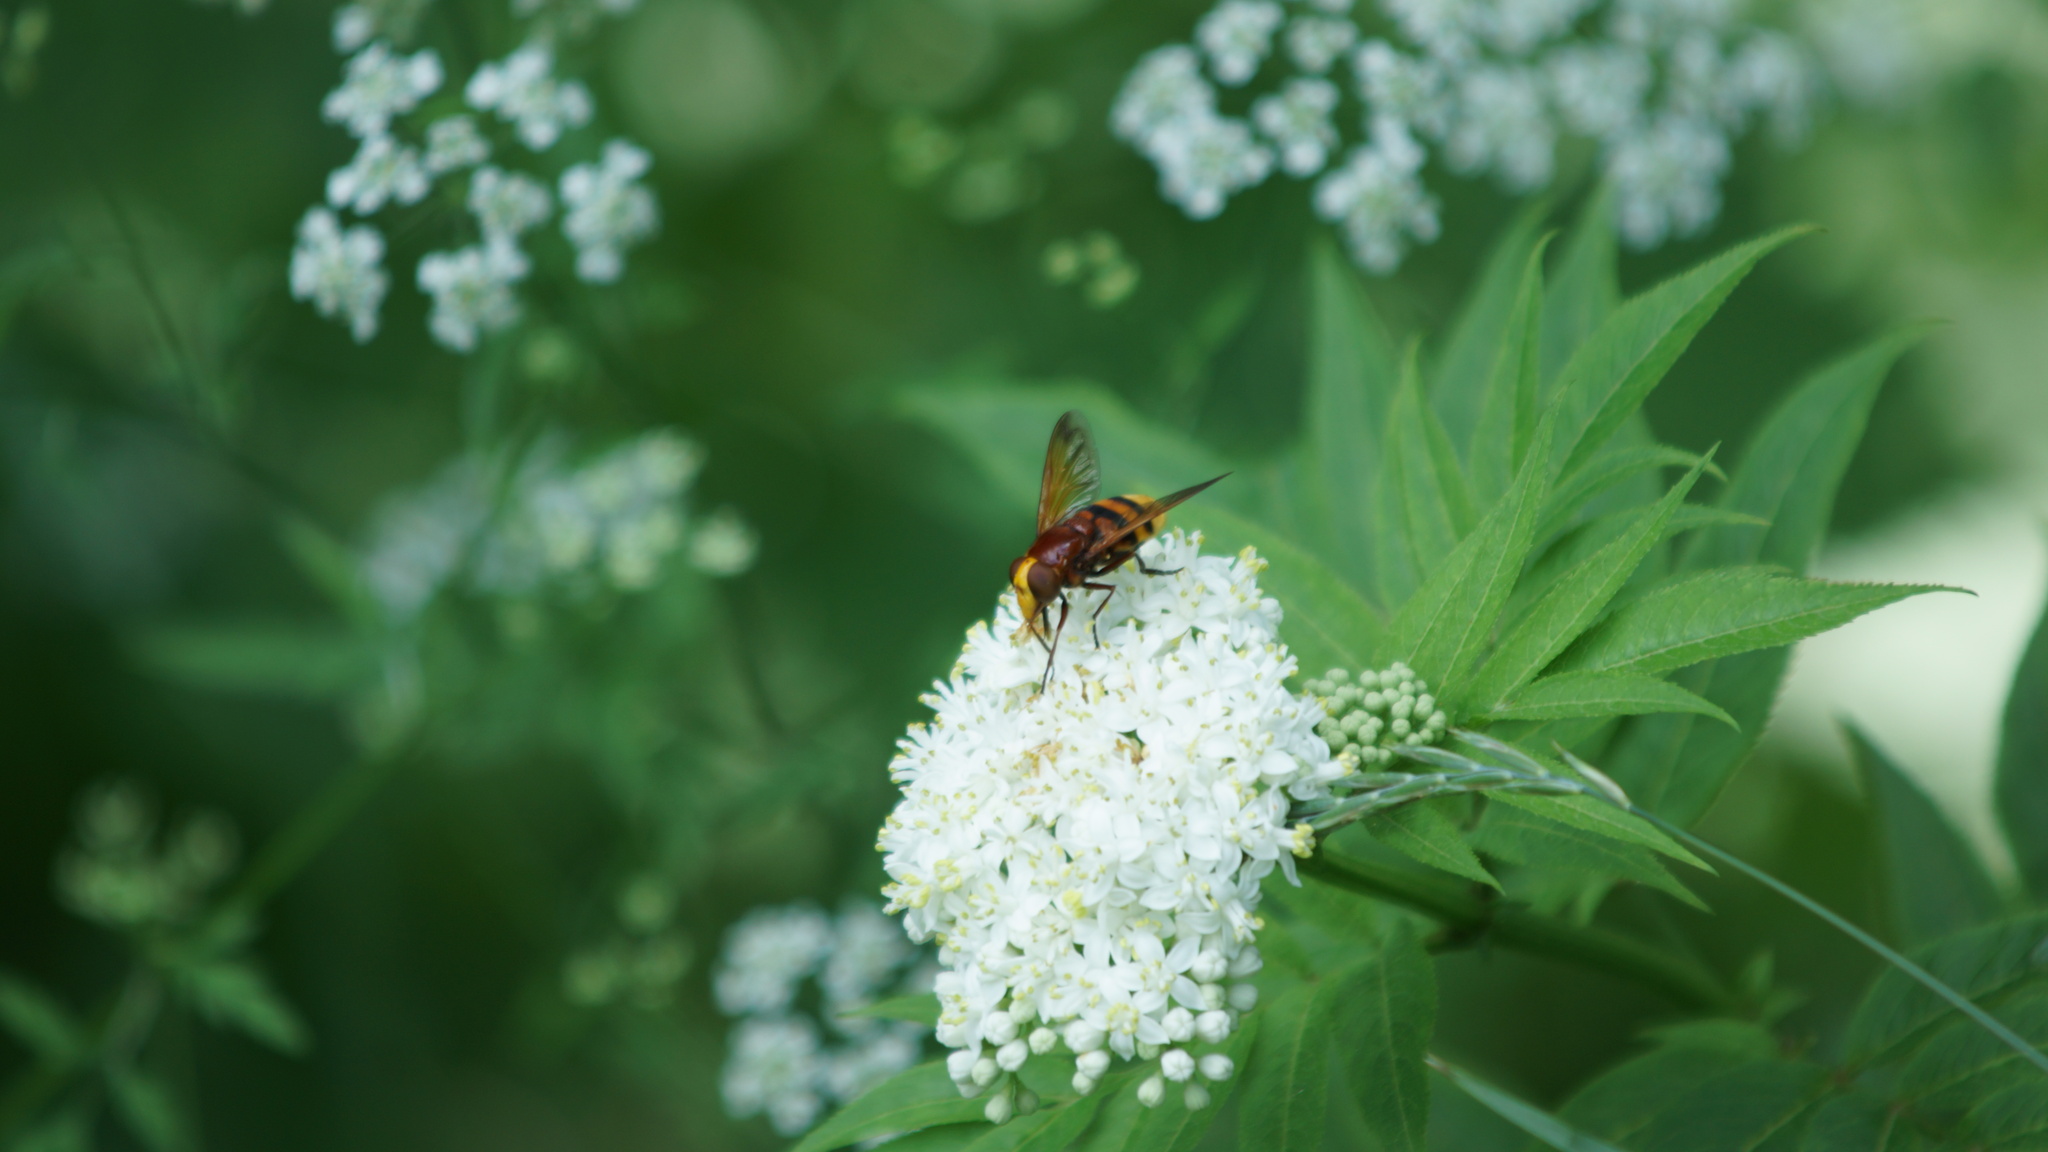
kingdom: Animalia
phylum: Arthropoda
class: Insecta
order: Diptera
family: Syrphidae
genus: Volucella
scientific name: Volucella zonaria
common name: Hornet hoverfly
